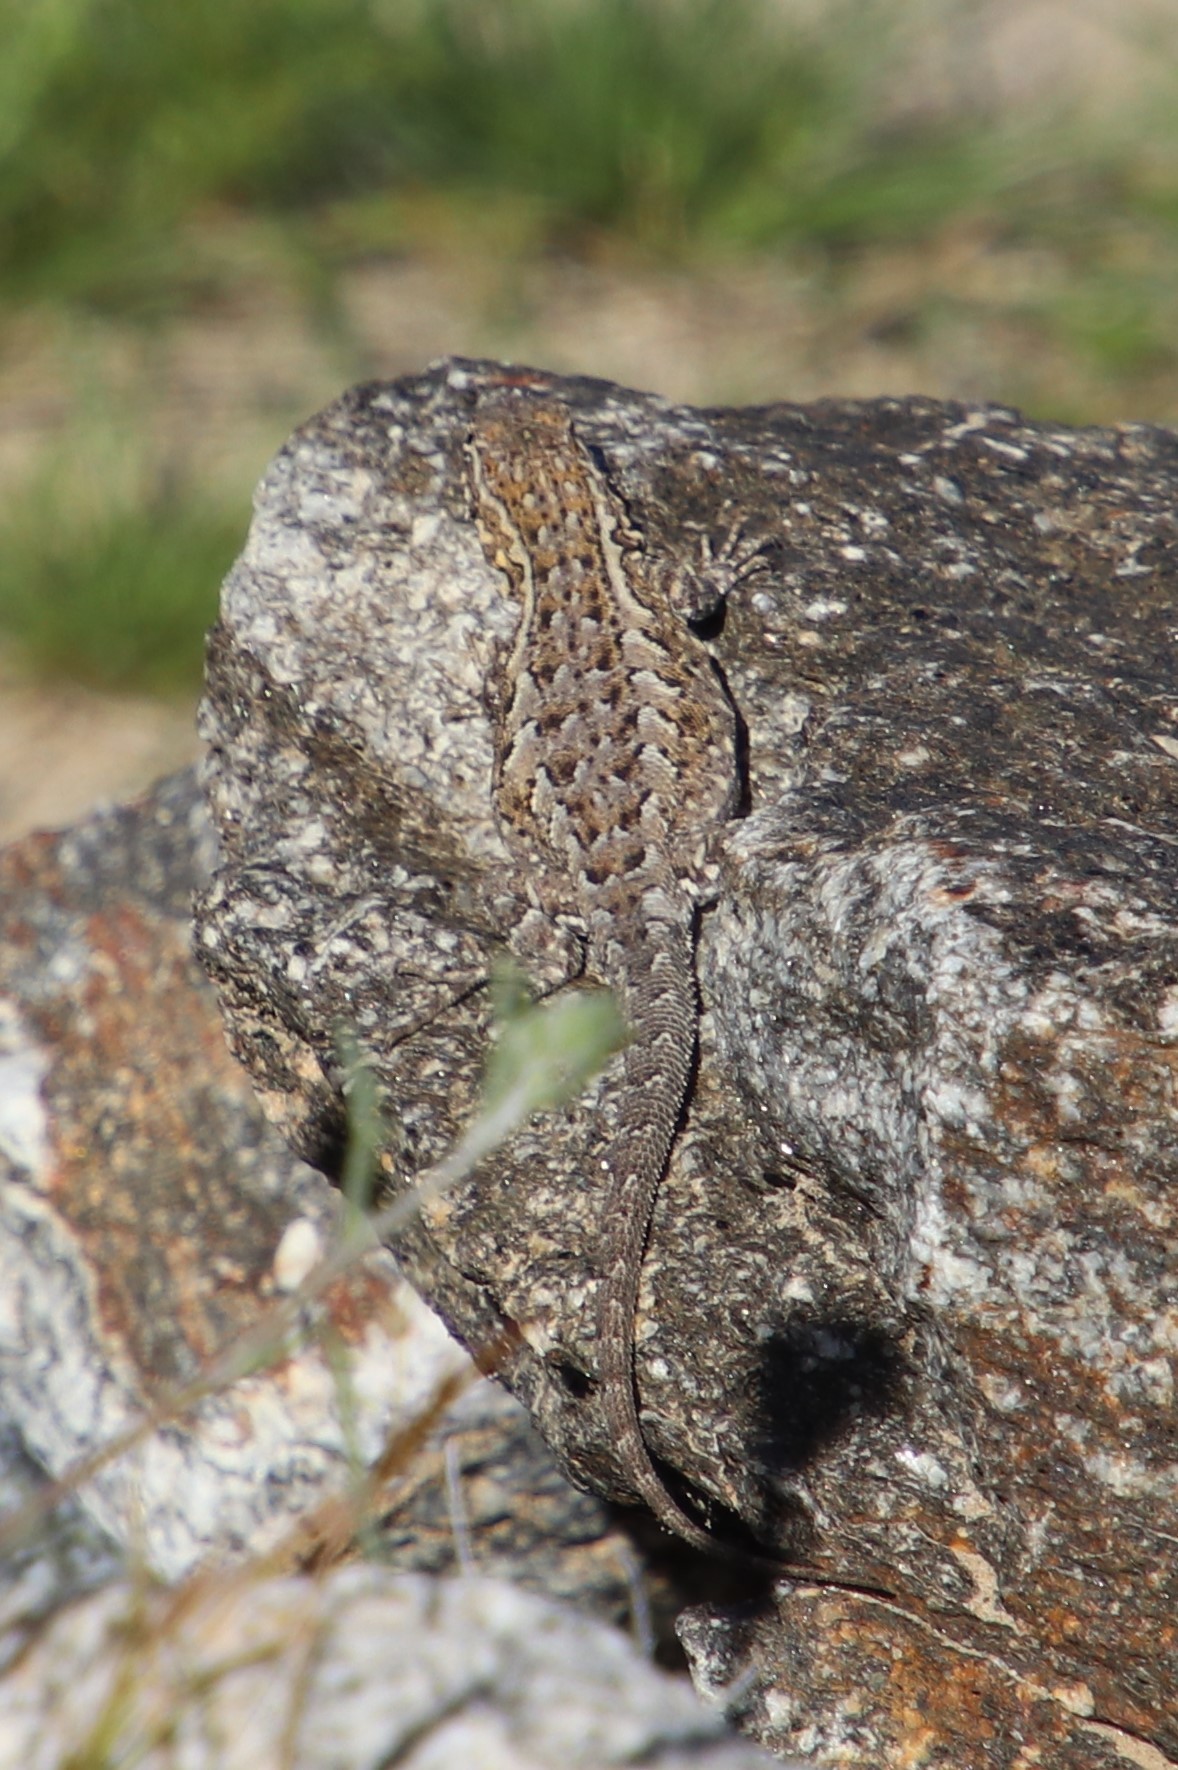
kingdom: Animalia
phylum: Chordata
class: Squamata
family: Phrynosomatidae
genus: Uta
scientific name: Uta stansburiana
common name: Side-blotched lizard
